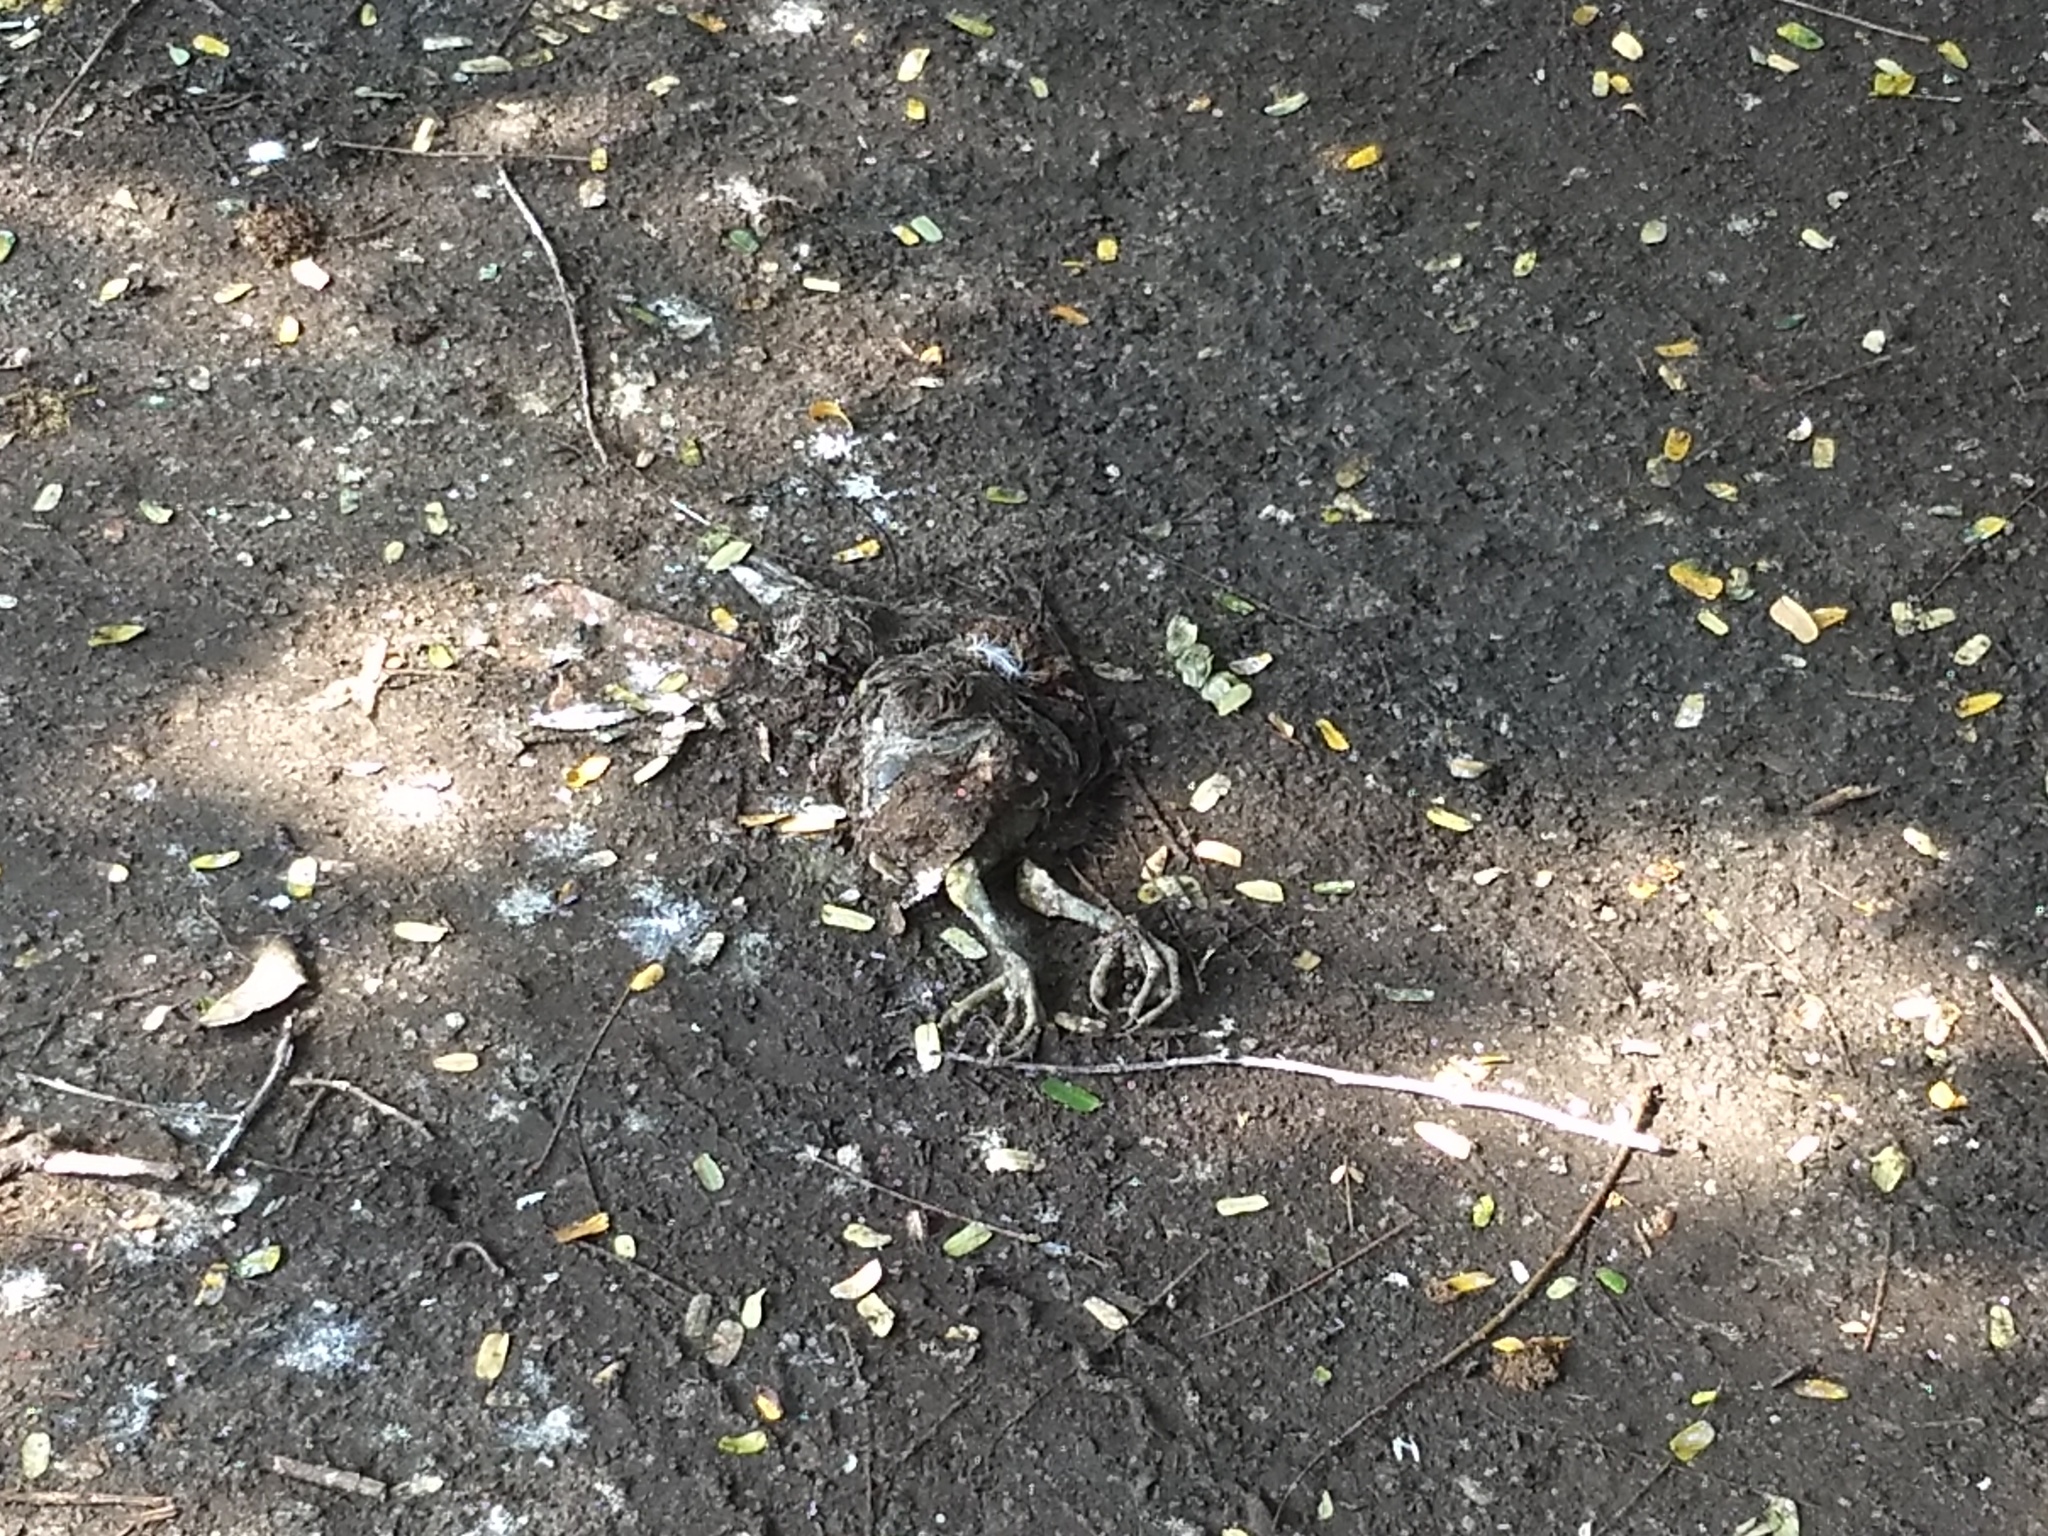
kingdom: Animalia
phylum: Chordata
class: Aves
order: Pelecaniformes
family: Ardeidae
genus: Bubulcus
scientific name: Bubulcus coromandus
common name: Eastern cattle egret
